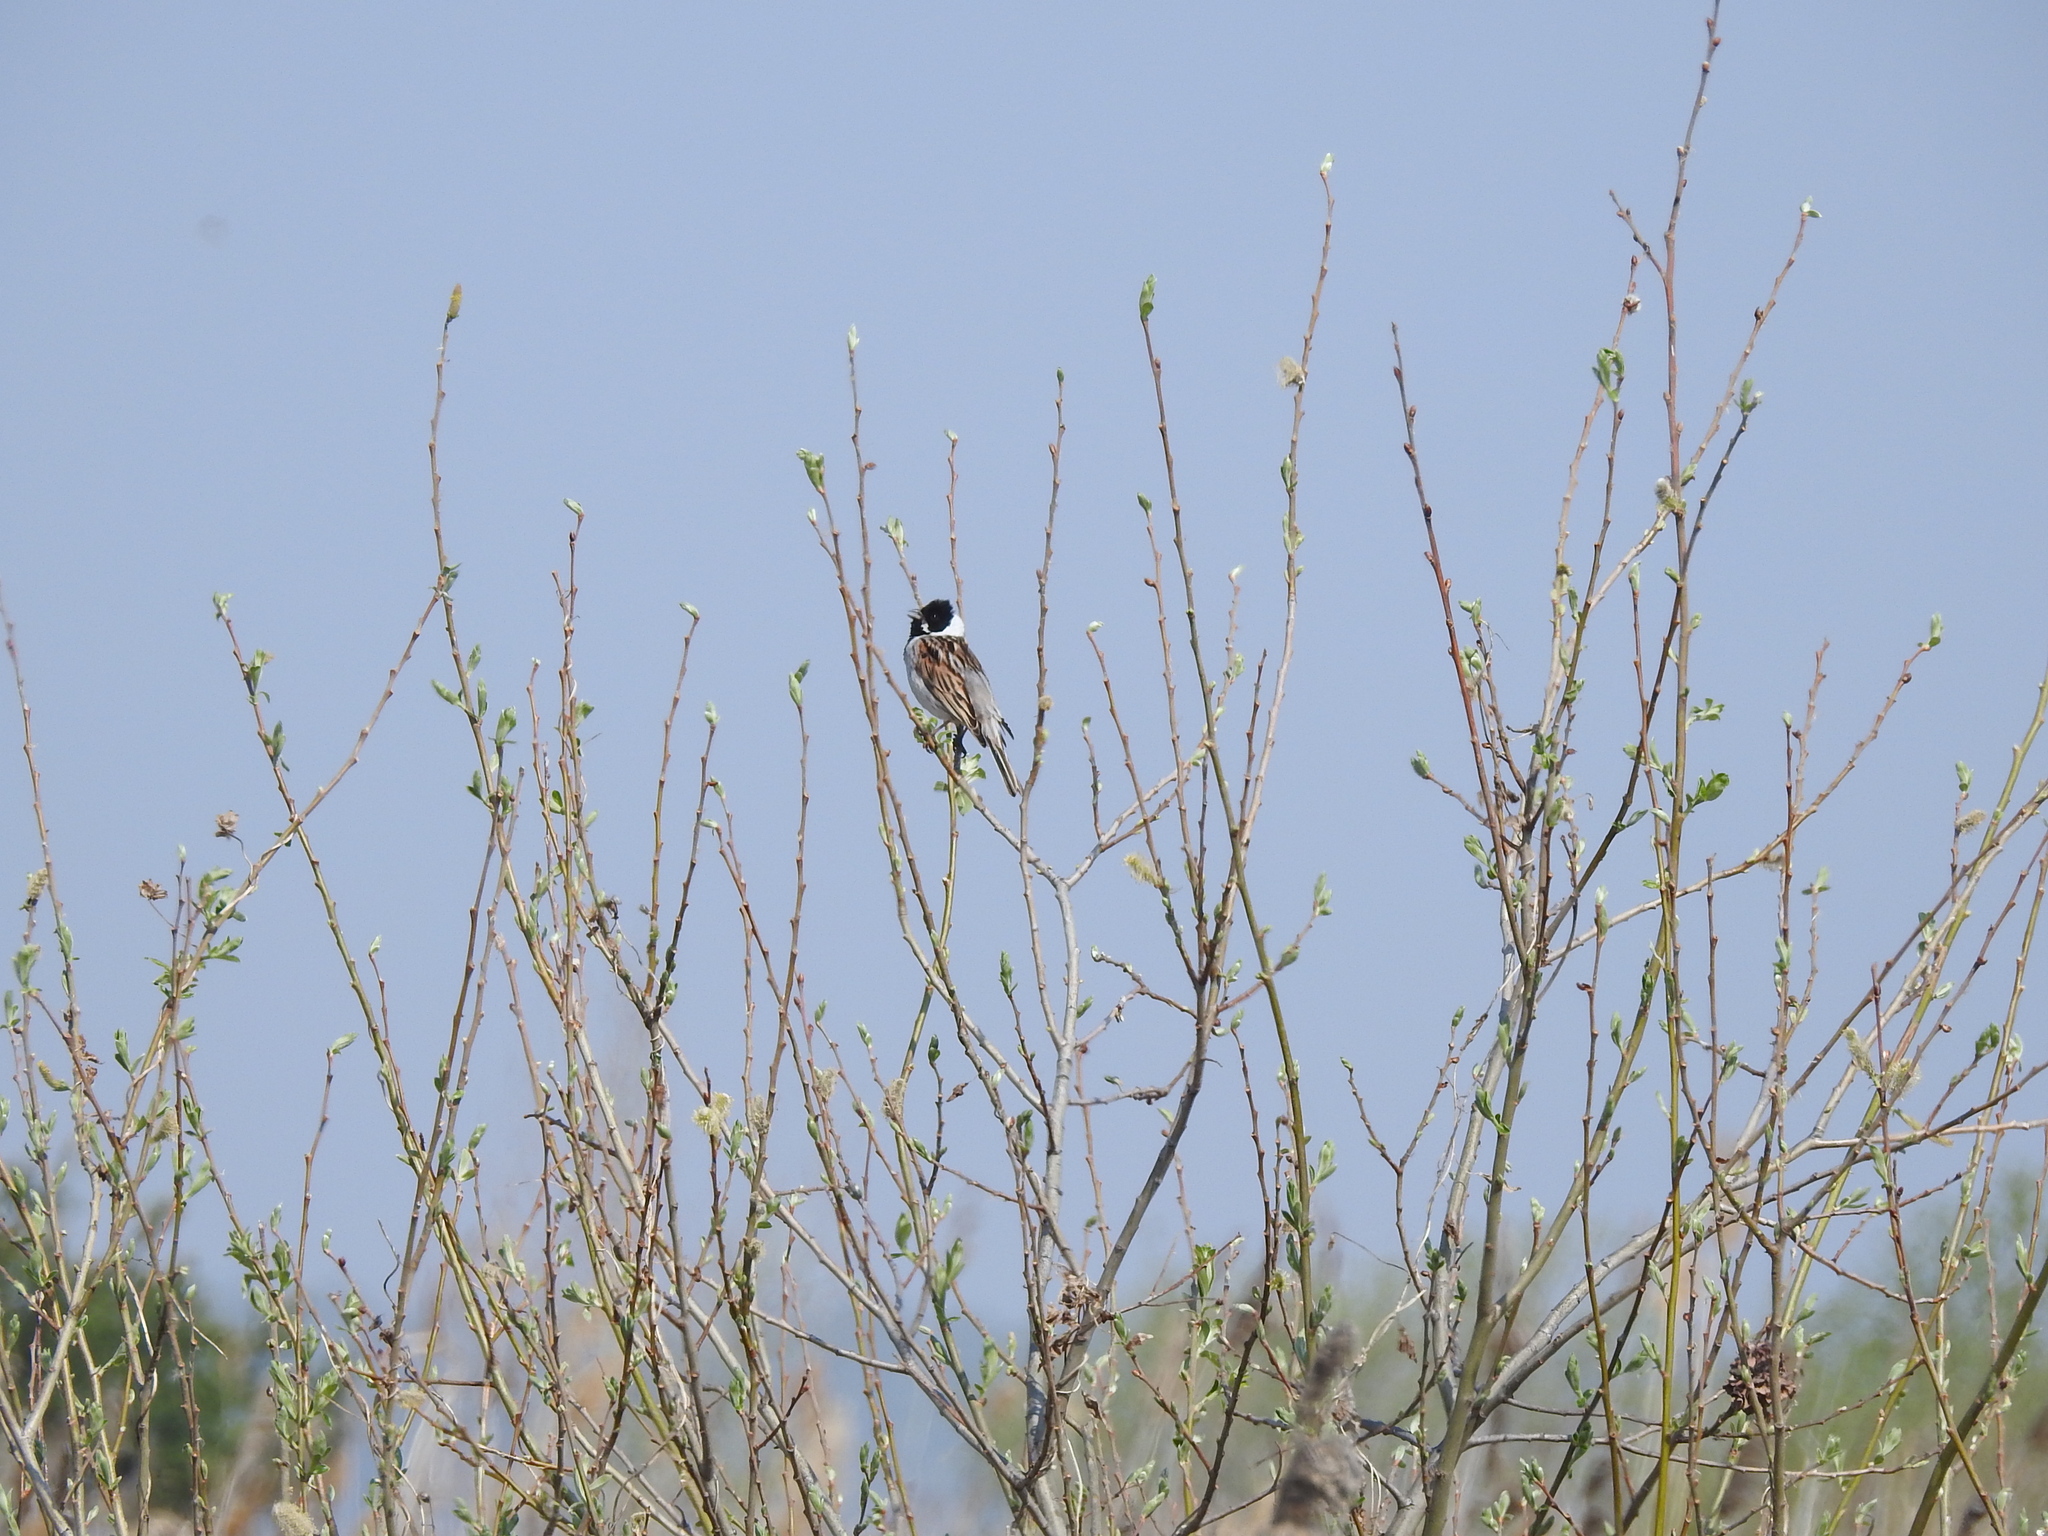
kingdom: Animalia
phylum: Chordata
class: Aves
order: Passeriformes
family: Emberizidae
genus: Emberiza
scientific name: Emberiza schoeniclus
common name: Reed bunting
